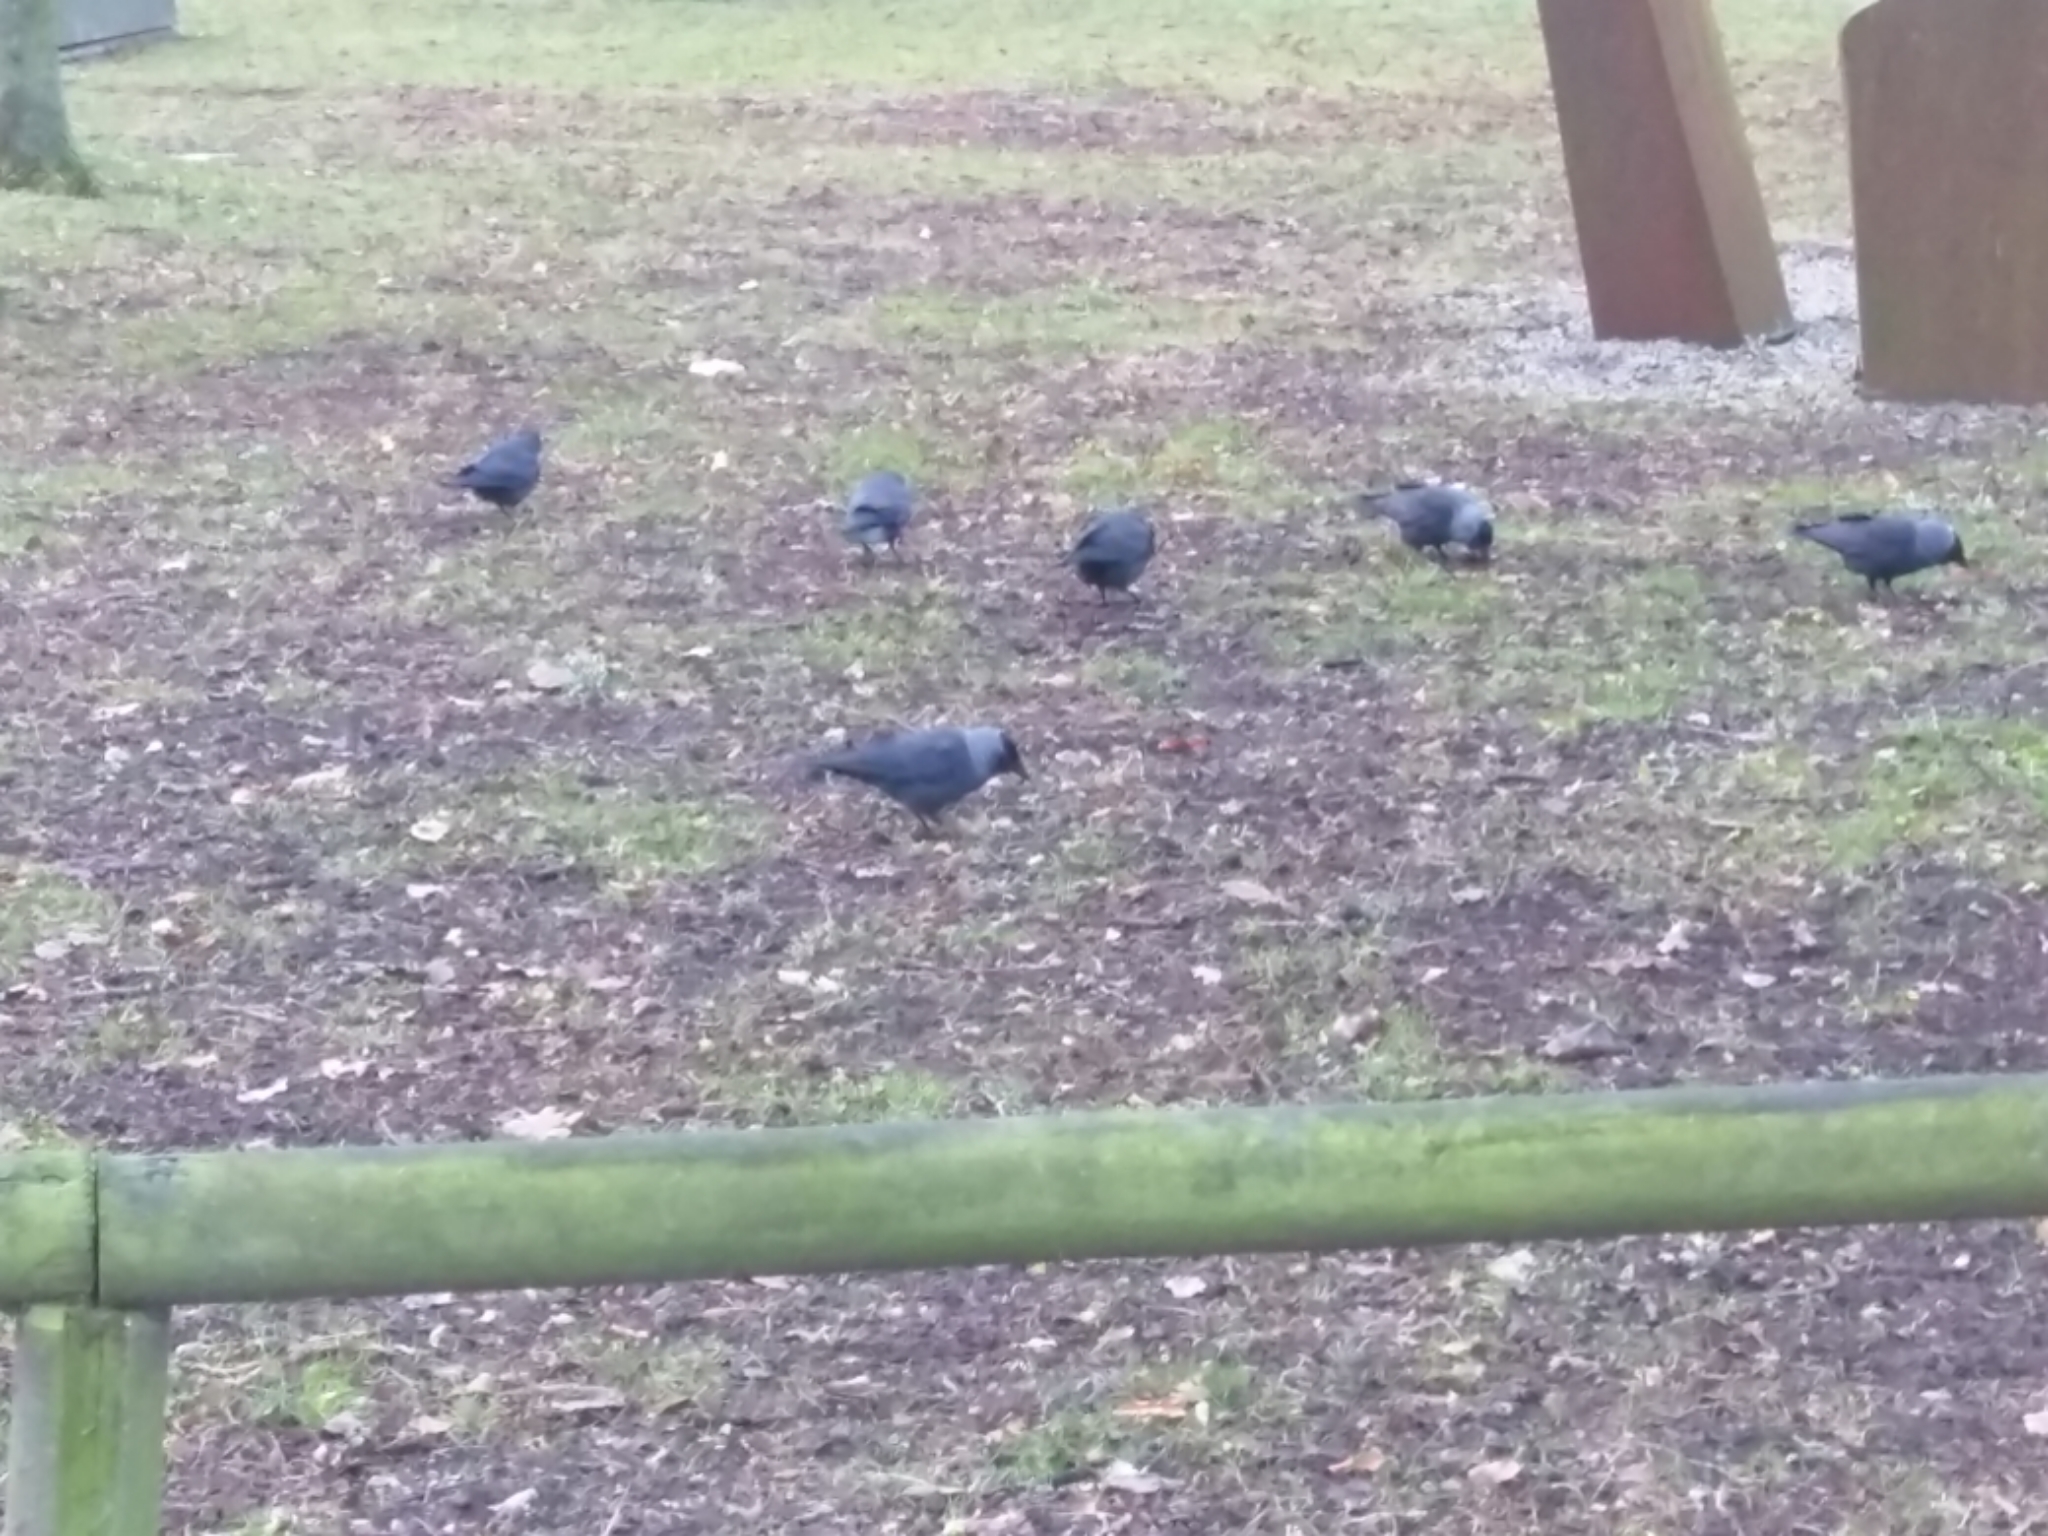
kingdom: Animalia
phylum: Chordata
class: Aves
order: Passeriformes
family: Corvidae
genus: Coloeus
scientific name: Coloeus monedula
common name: Western jackdaw
